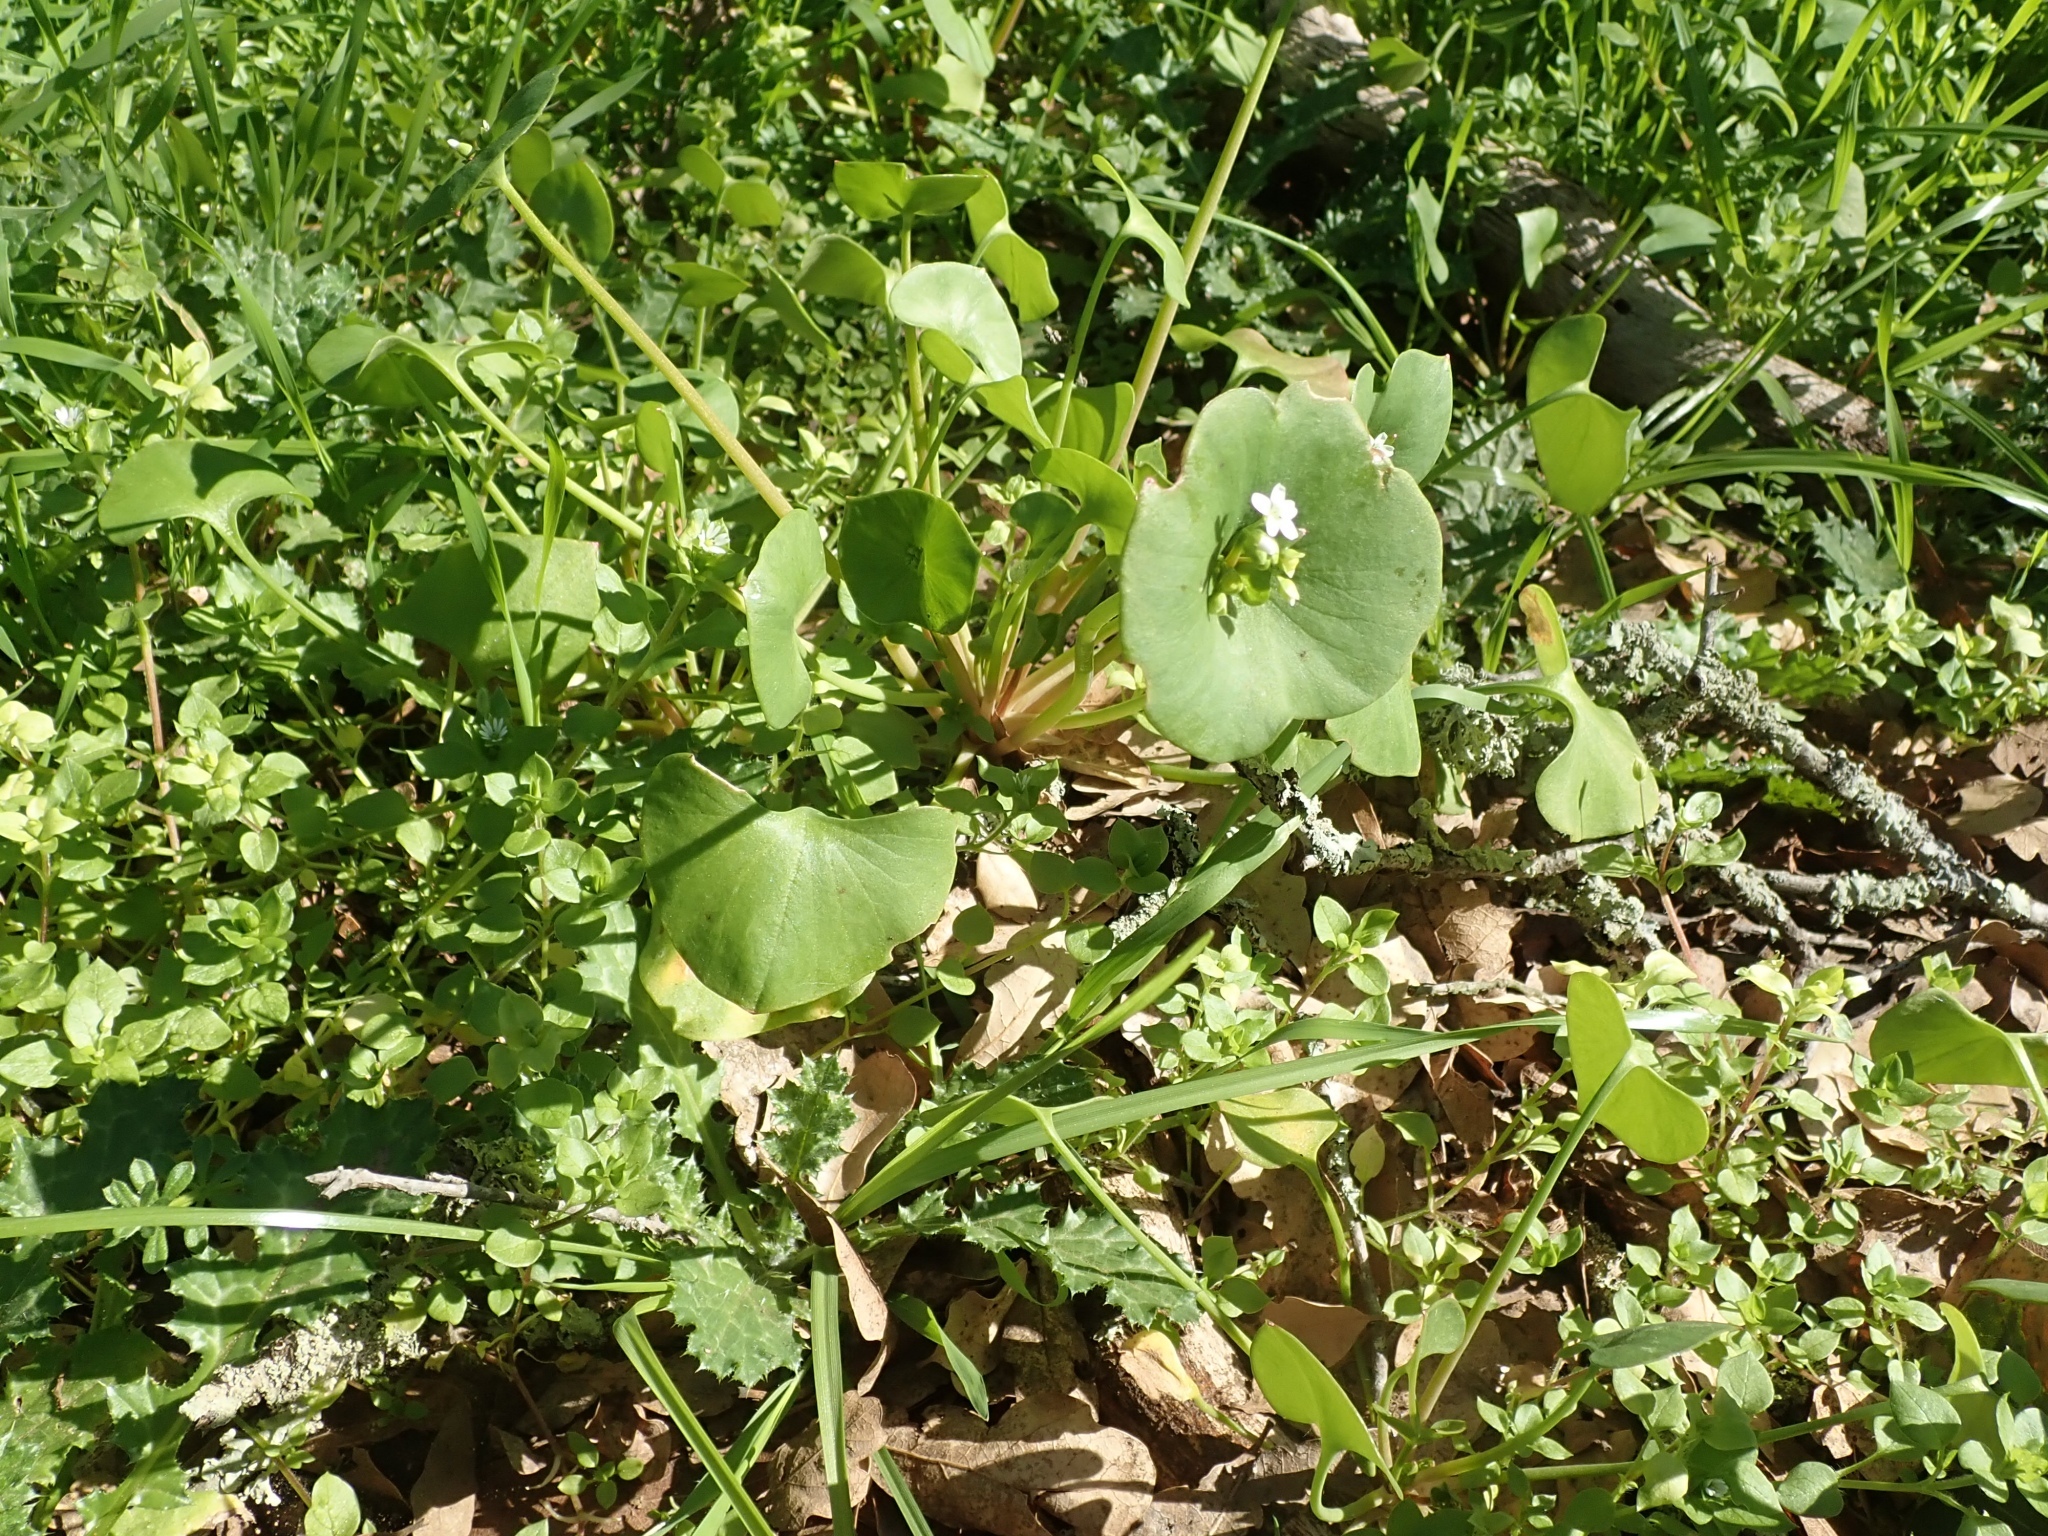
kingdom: Plantae
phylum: Tracheophyta
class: Magnoliopsida
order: Caryophyllales
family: Montiaceae
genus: Claytonia
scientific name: Claytonia perfoliata
